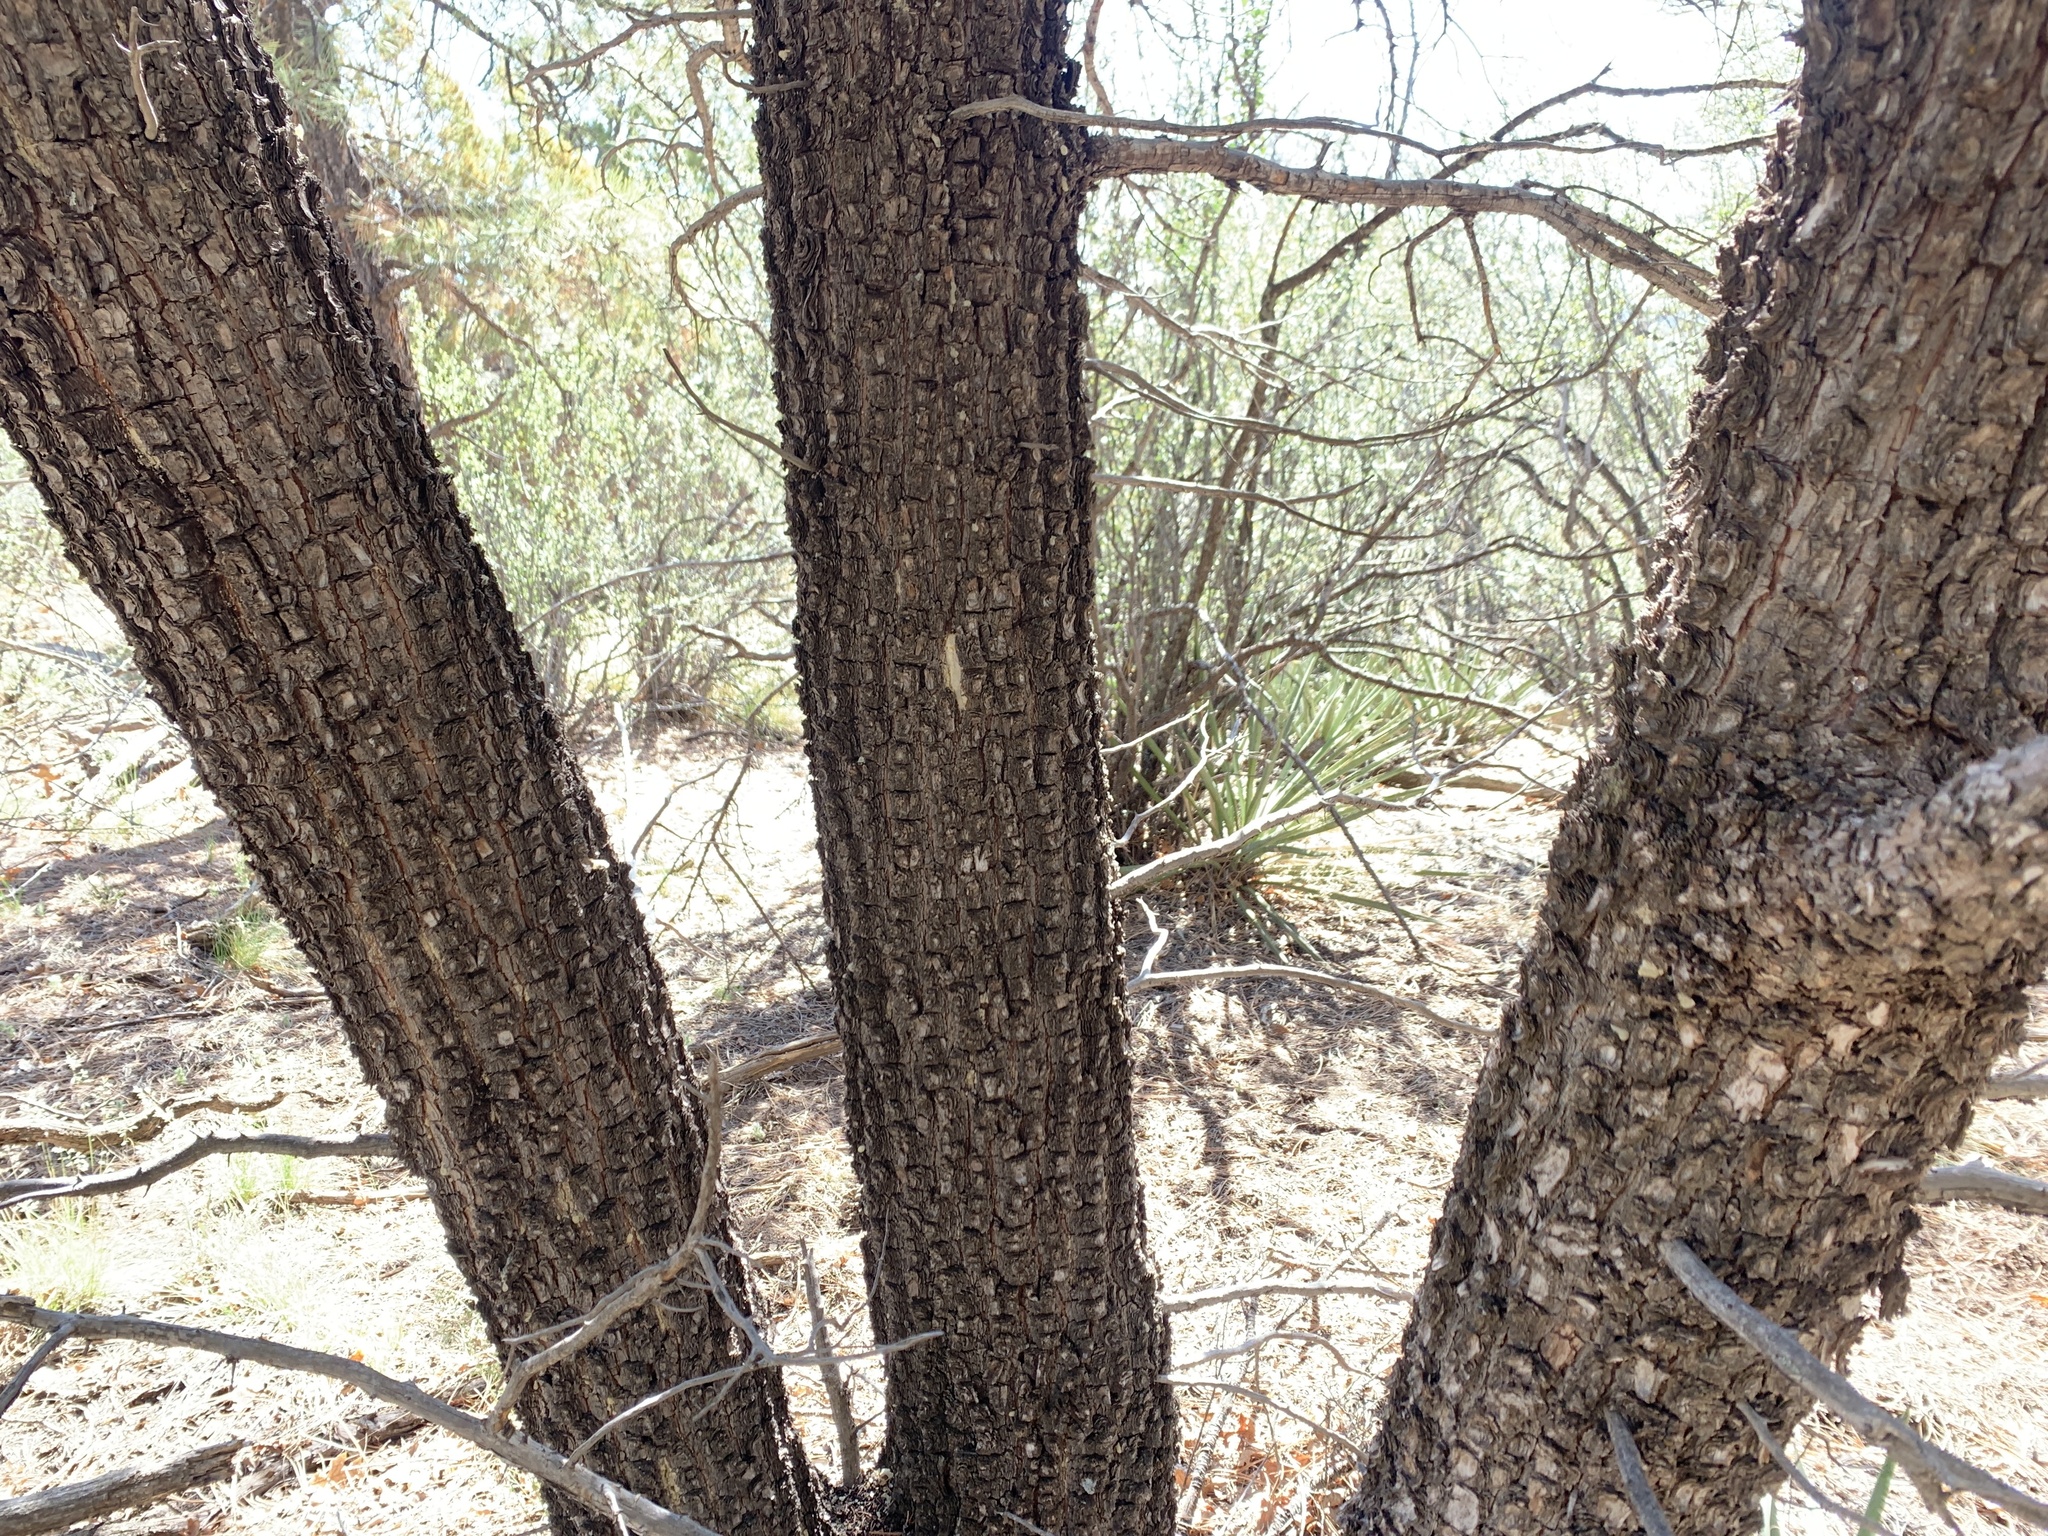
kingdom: Plantae
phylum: Tracheophyta
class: Pinopsida
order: Pinales
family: Cupressaceae
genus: Juniperus
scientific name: Juniperus deppeana
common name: Alligator juniper
